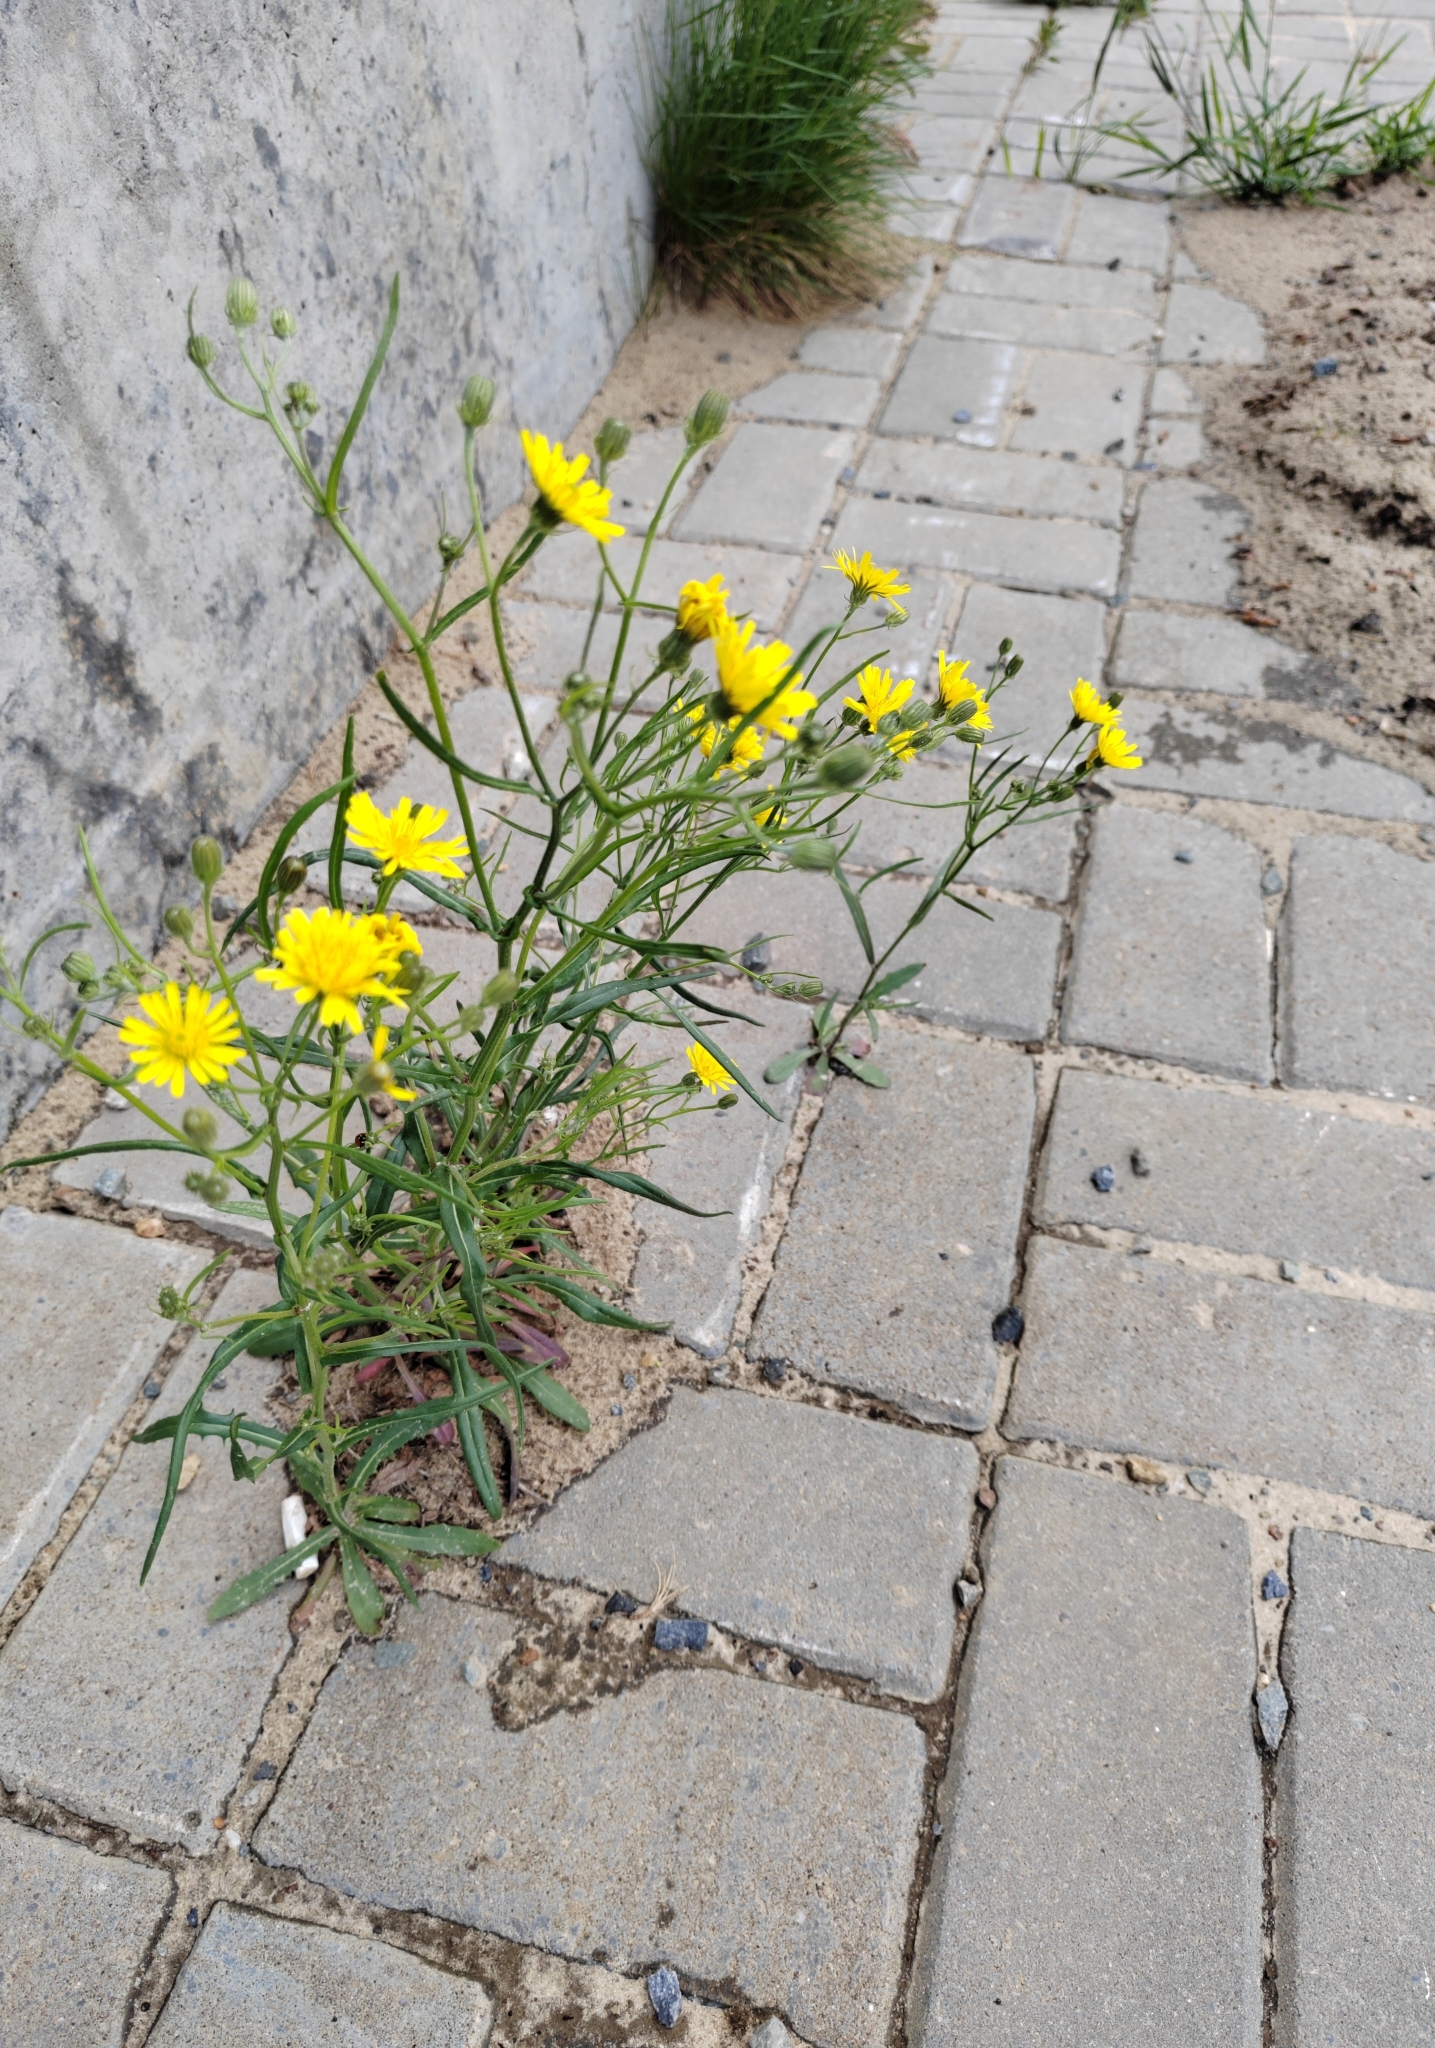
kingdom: Plantae
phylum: Tracheophyta
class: Magnoliopsida
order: Asterales
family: Asteraceae
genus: Crepis
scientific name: Crepis tectorum
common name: Narrow-leaved hawk's-beard
